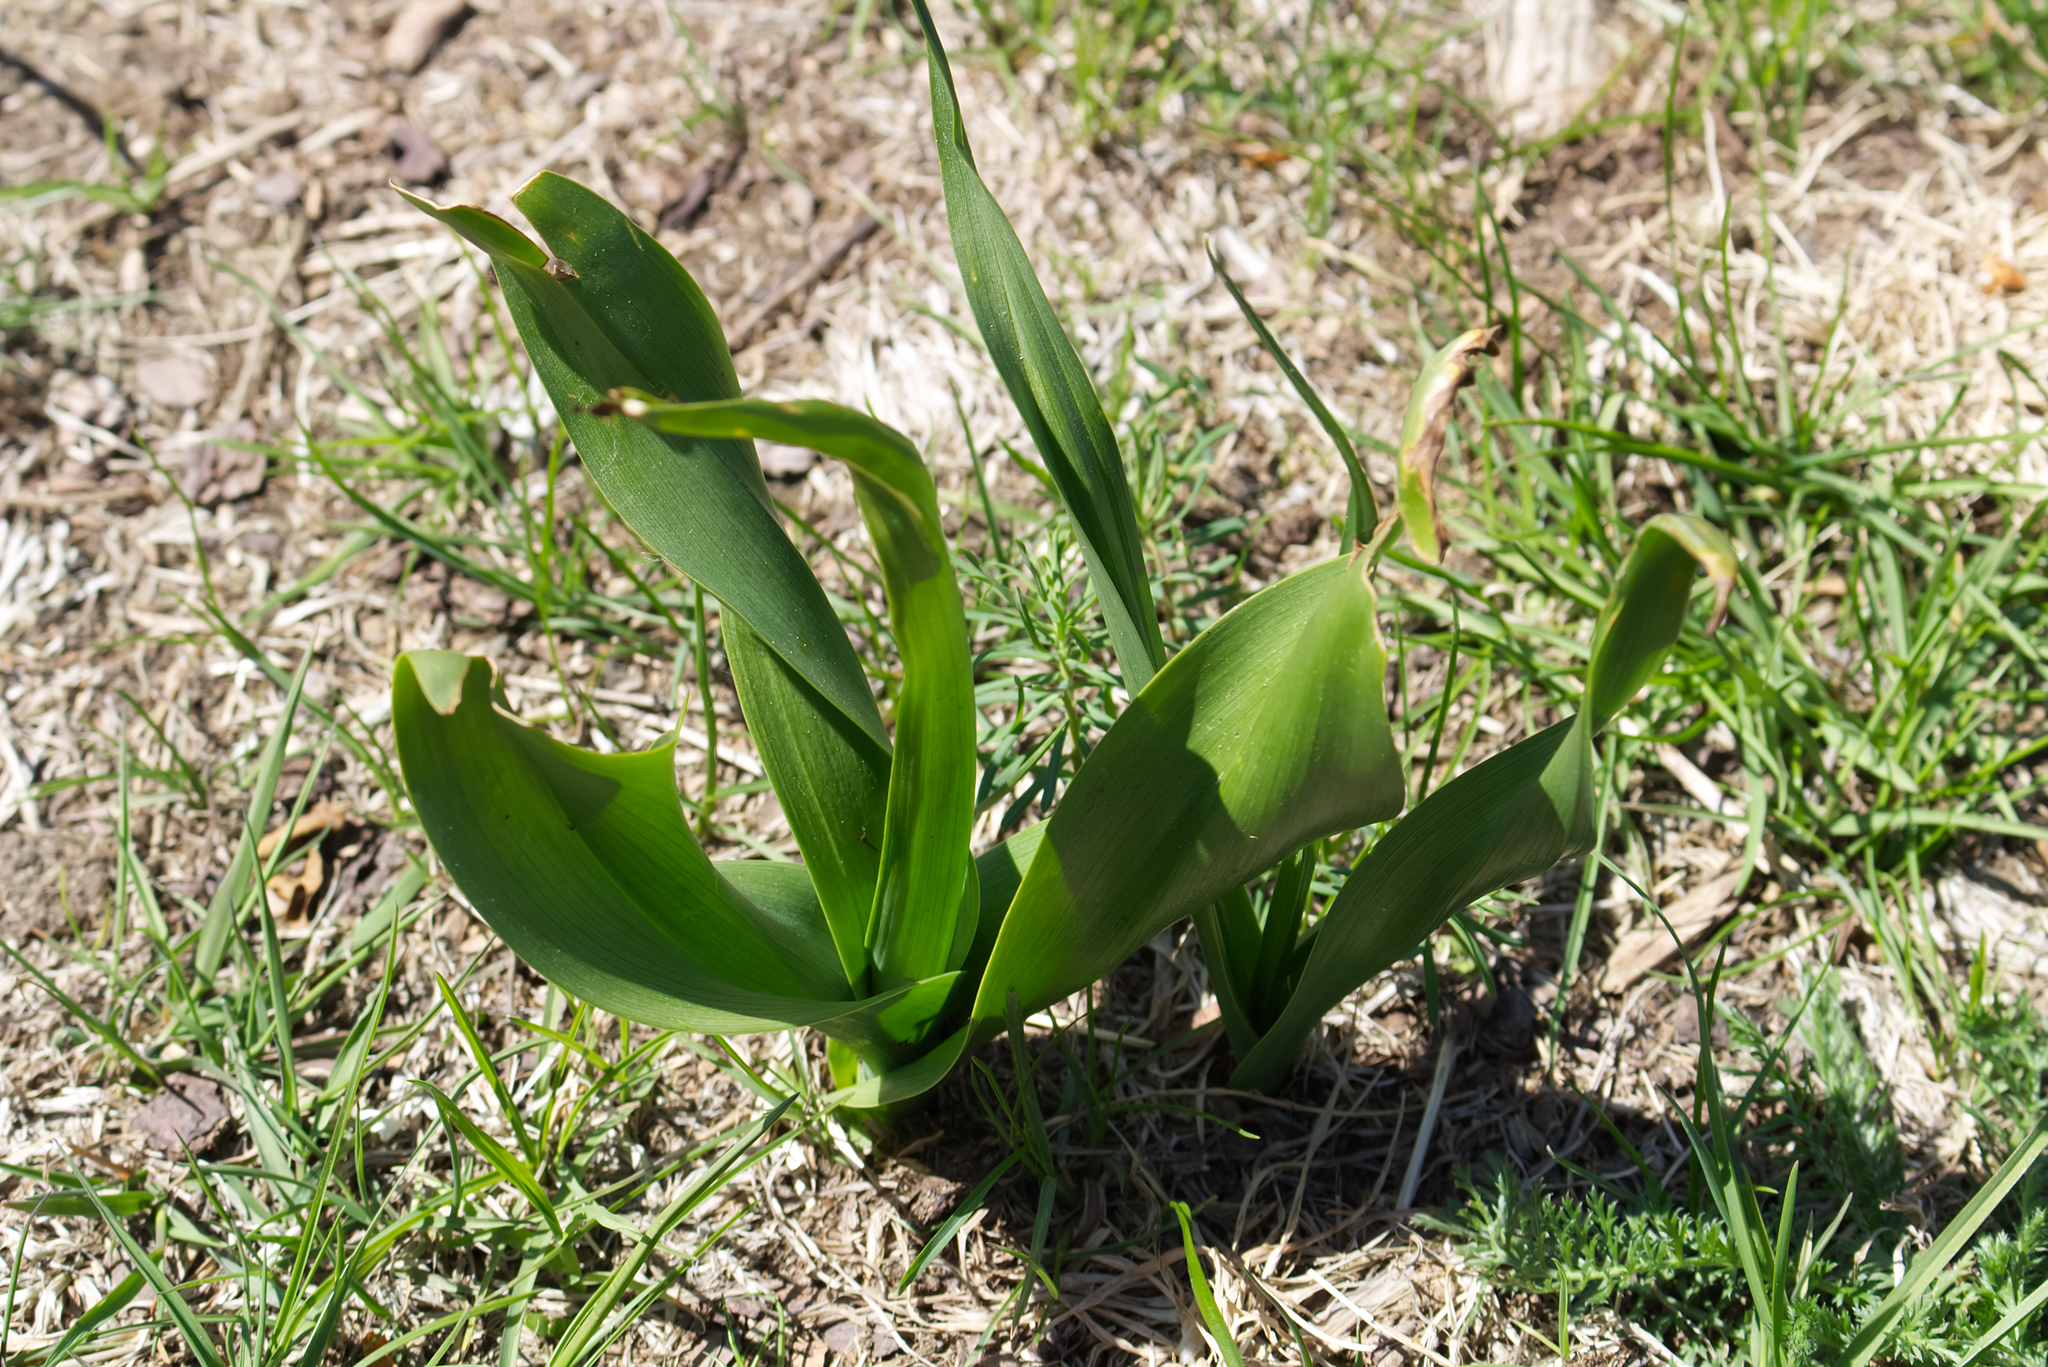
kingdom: Plantae
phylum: Tracheophyta
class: Liliopsida
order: Liliales
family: Colchicaceae
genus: Colchicum
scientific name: Colchicum autumnale
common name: Autumn crocus
